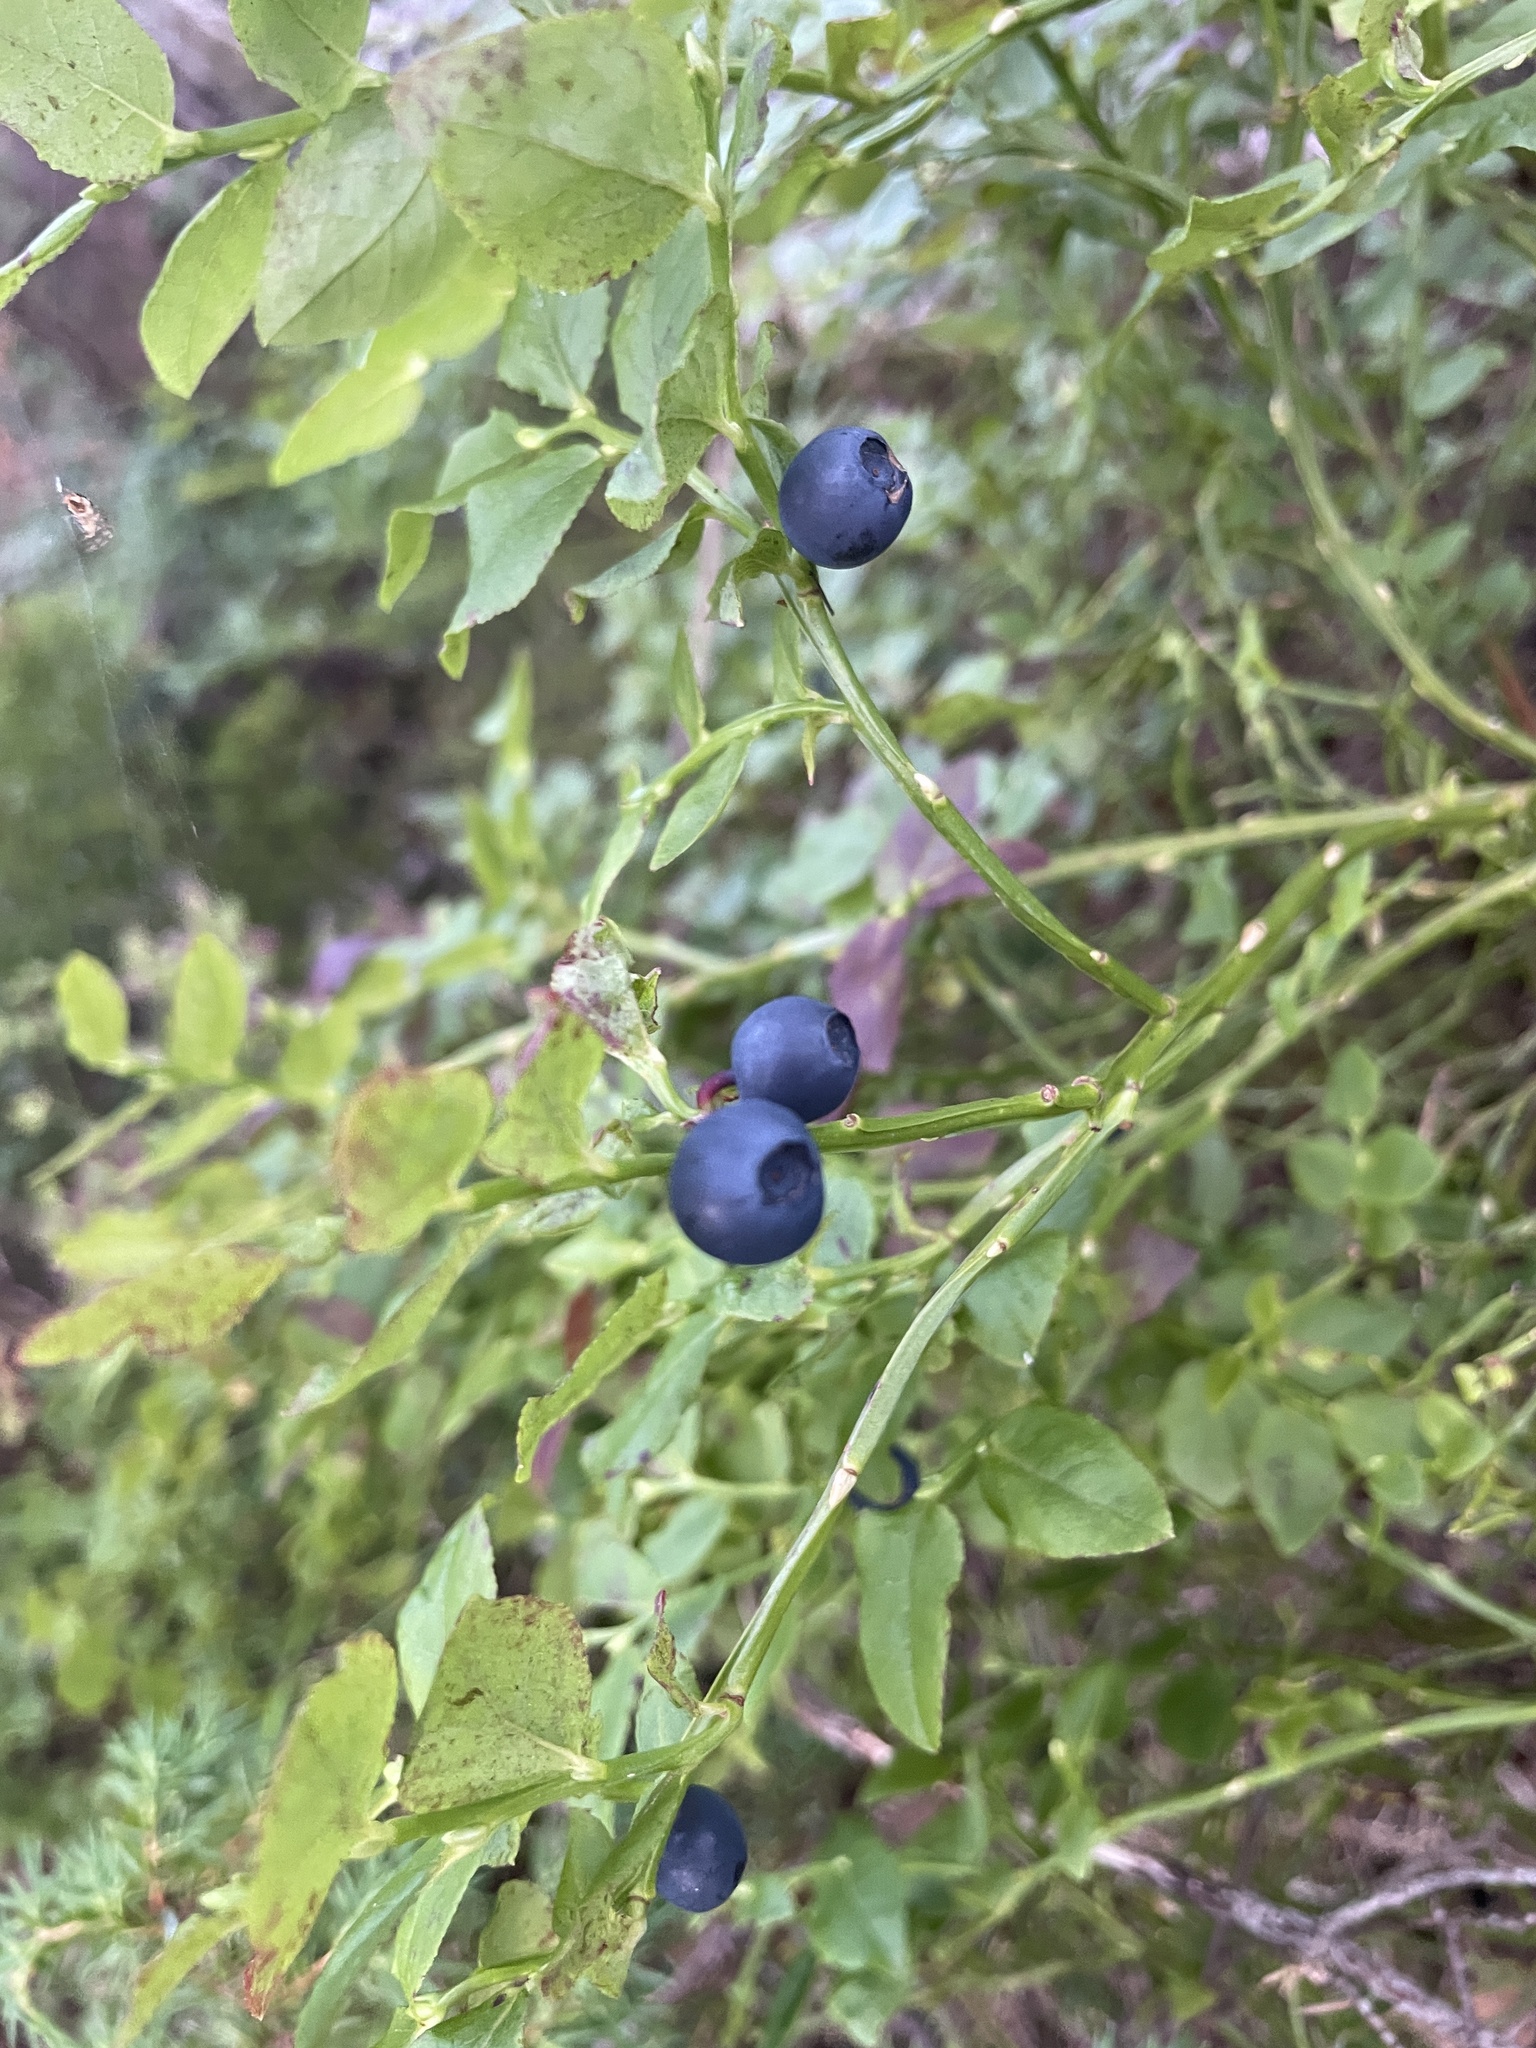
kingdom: Plantae
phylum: Tracheophyta
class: Magnoliopsida
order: Ericales
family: Ericaceae
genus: Vaccinium
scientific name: Vaccinium myrtillus
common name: Bilberry
